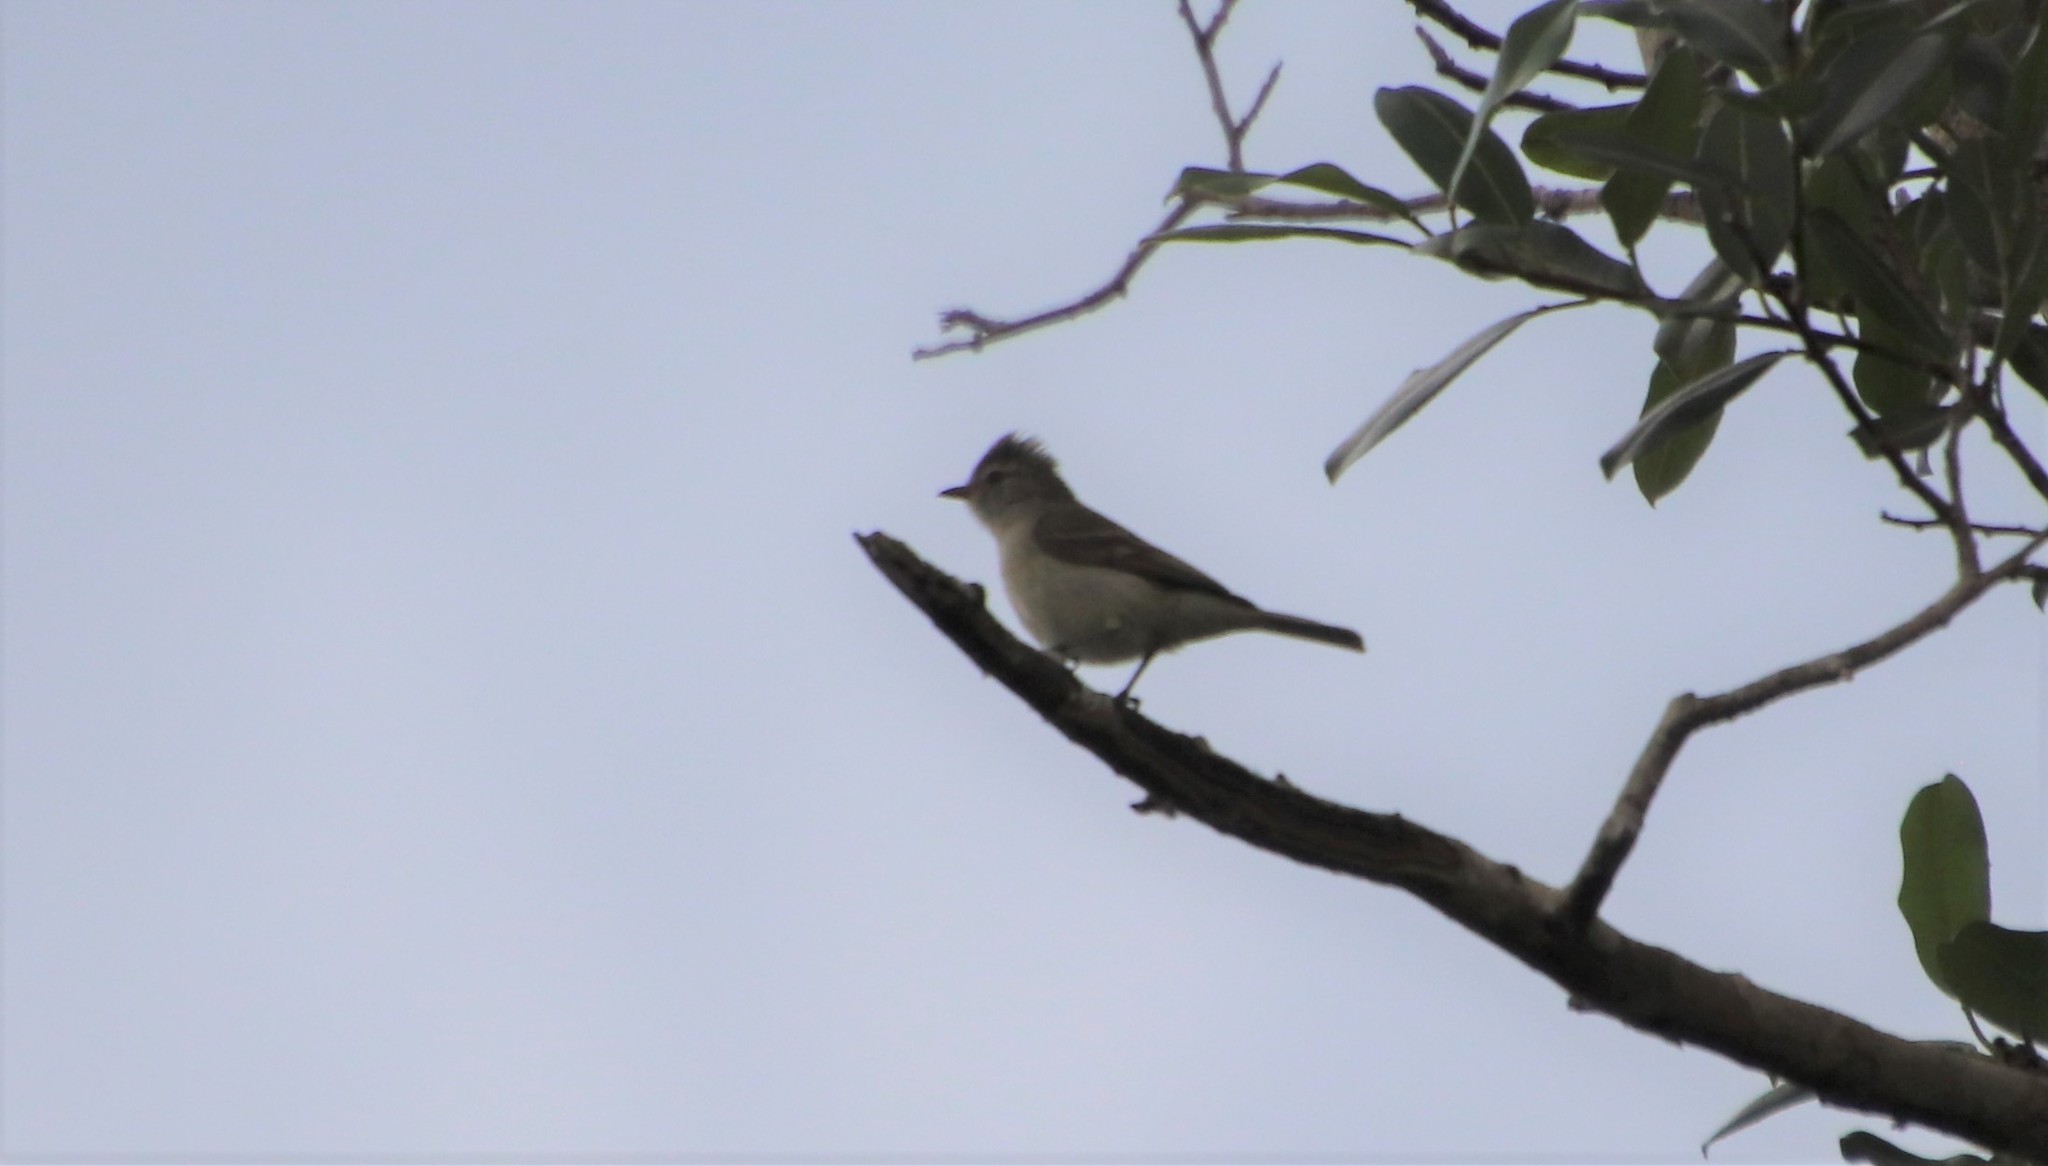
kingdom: Animalia
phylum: Chordata
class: Aves
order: Passeriformes
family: Tyrannidae
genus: Camptostoma
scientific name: Camptostoma obsoletum
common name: Southern beardless-tyrannulet
